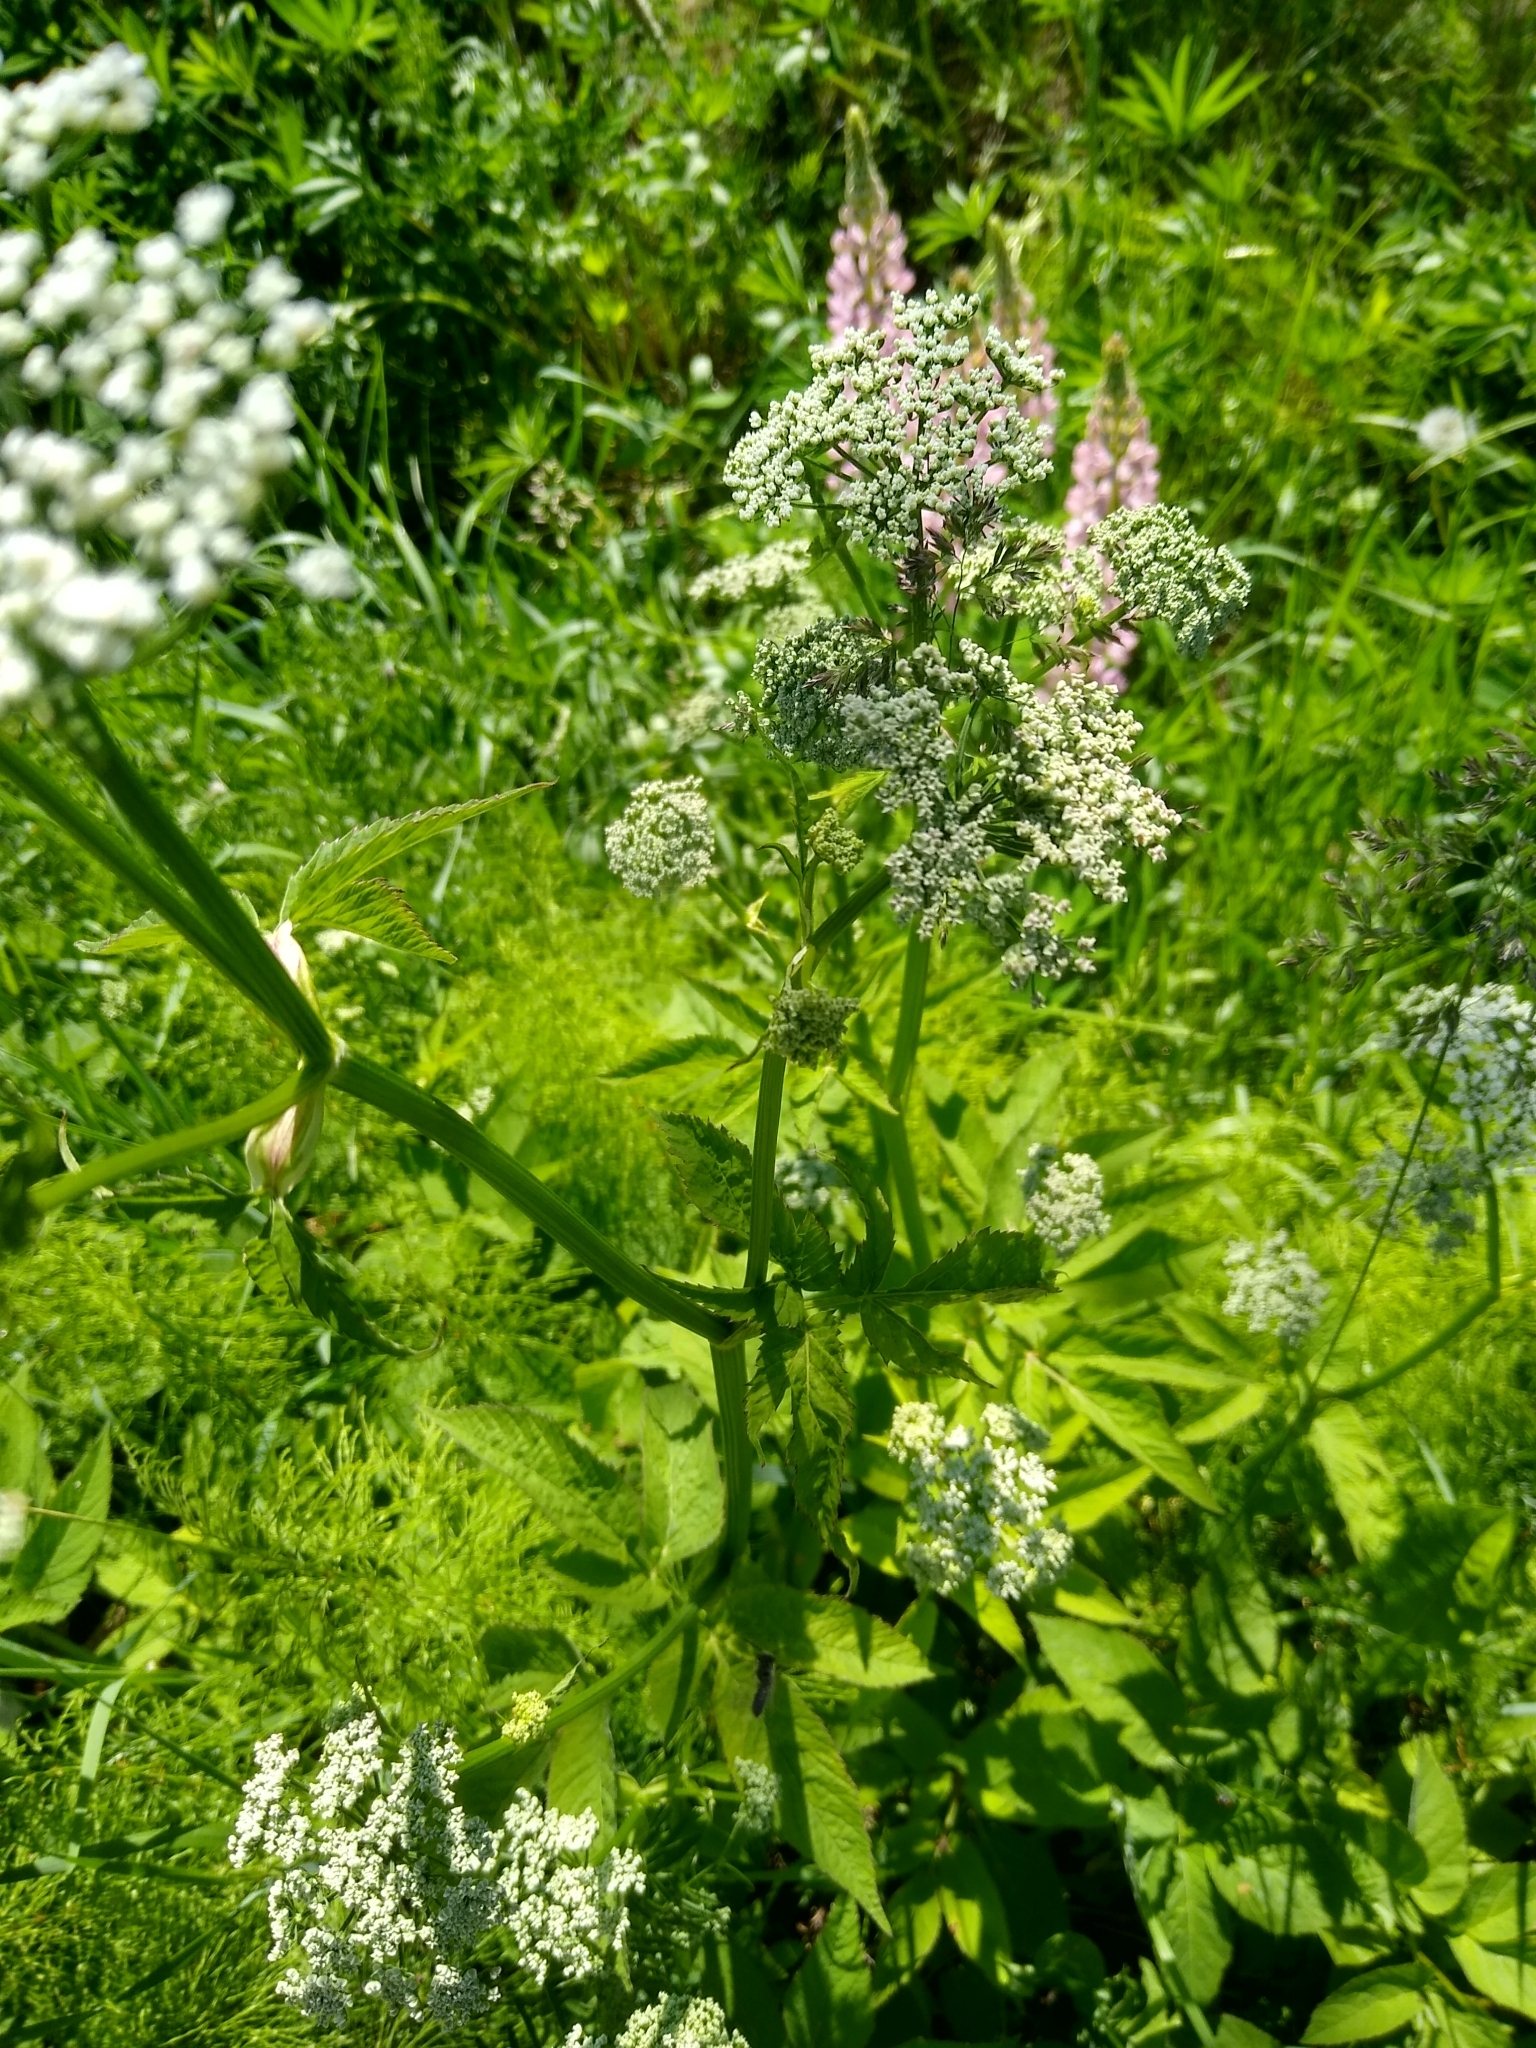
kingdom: Plantae
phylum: Tracheophyta
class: Magnoliopsida
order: Apiales
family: Apiaceae
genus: Aegopodium
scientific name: Aegopodium podagraria
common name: Ground-elder
